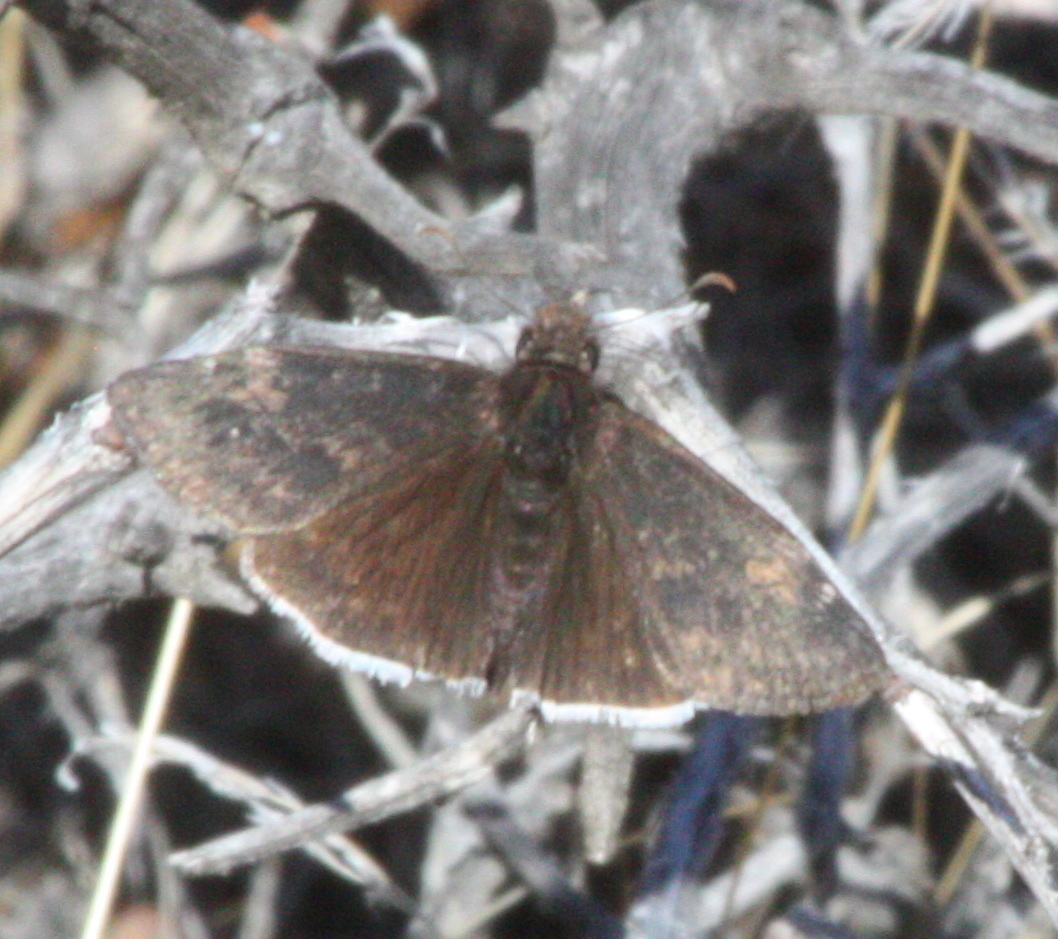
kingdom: Animalia
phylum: Arthropoda
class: Insecta
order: Lepidoptera
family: Hesperiidae
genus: Erynnis
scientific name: Erynnis funeralis
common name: Funereal duskywing
